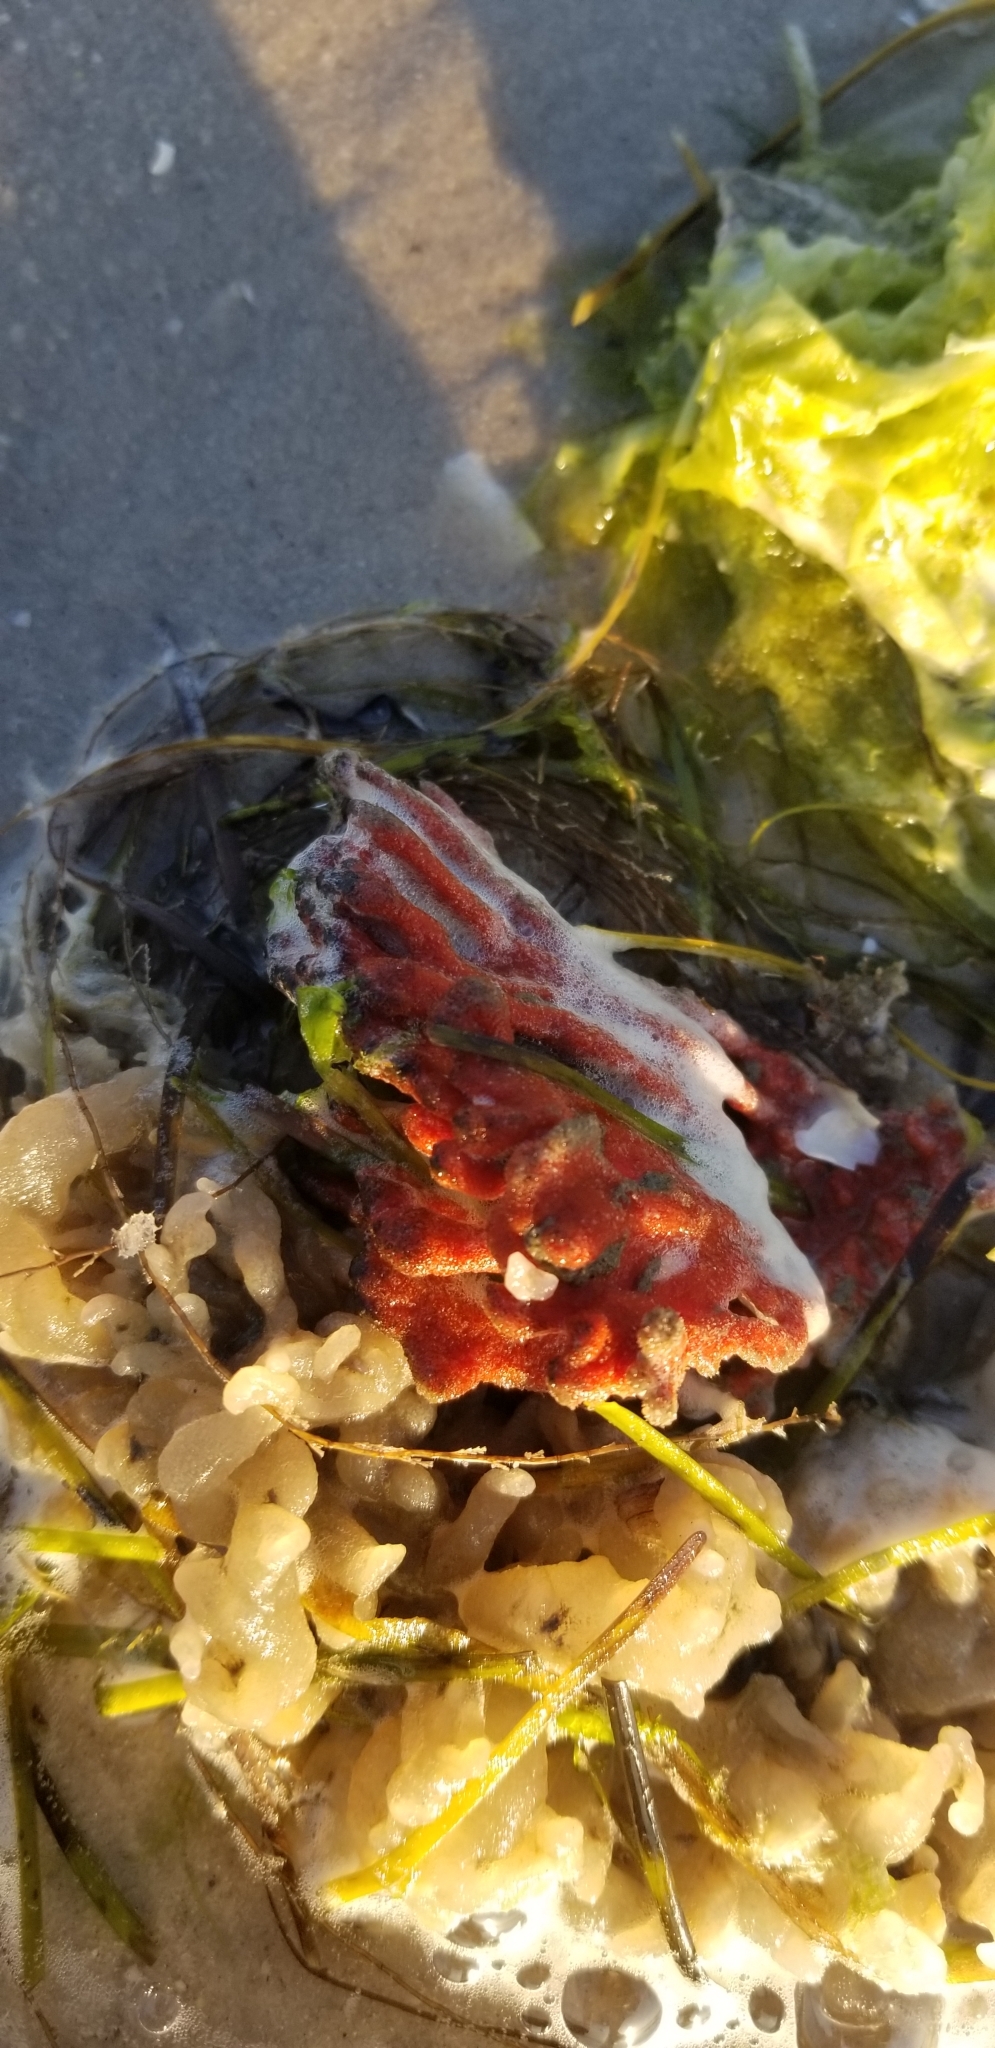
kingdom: Animalia
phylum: Porifera
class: Demospongiae
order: Poecilosclerida
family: Microcionidae
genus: Clathria
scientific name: Clathria prolifera
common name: Red beard sponge
